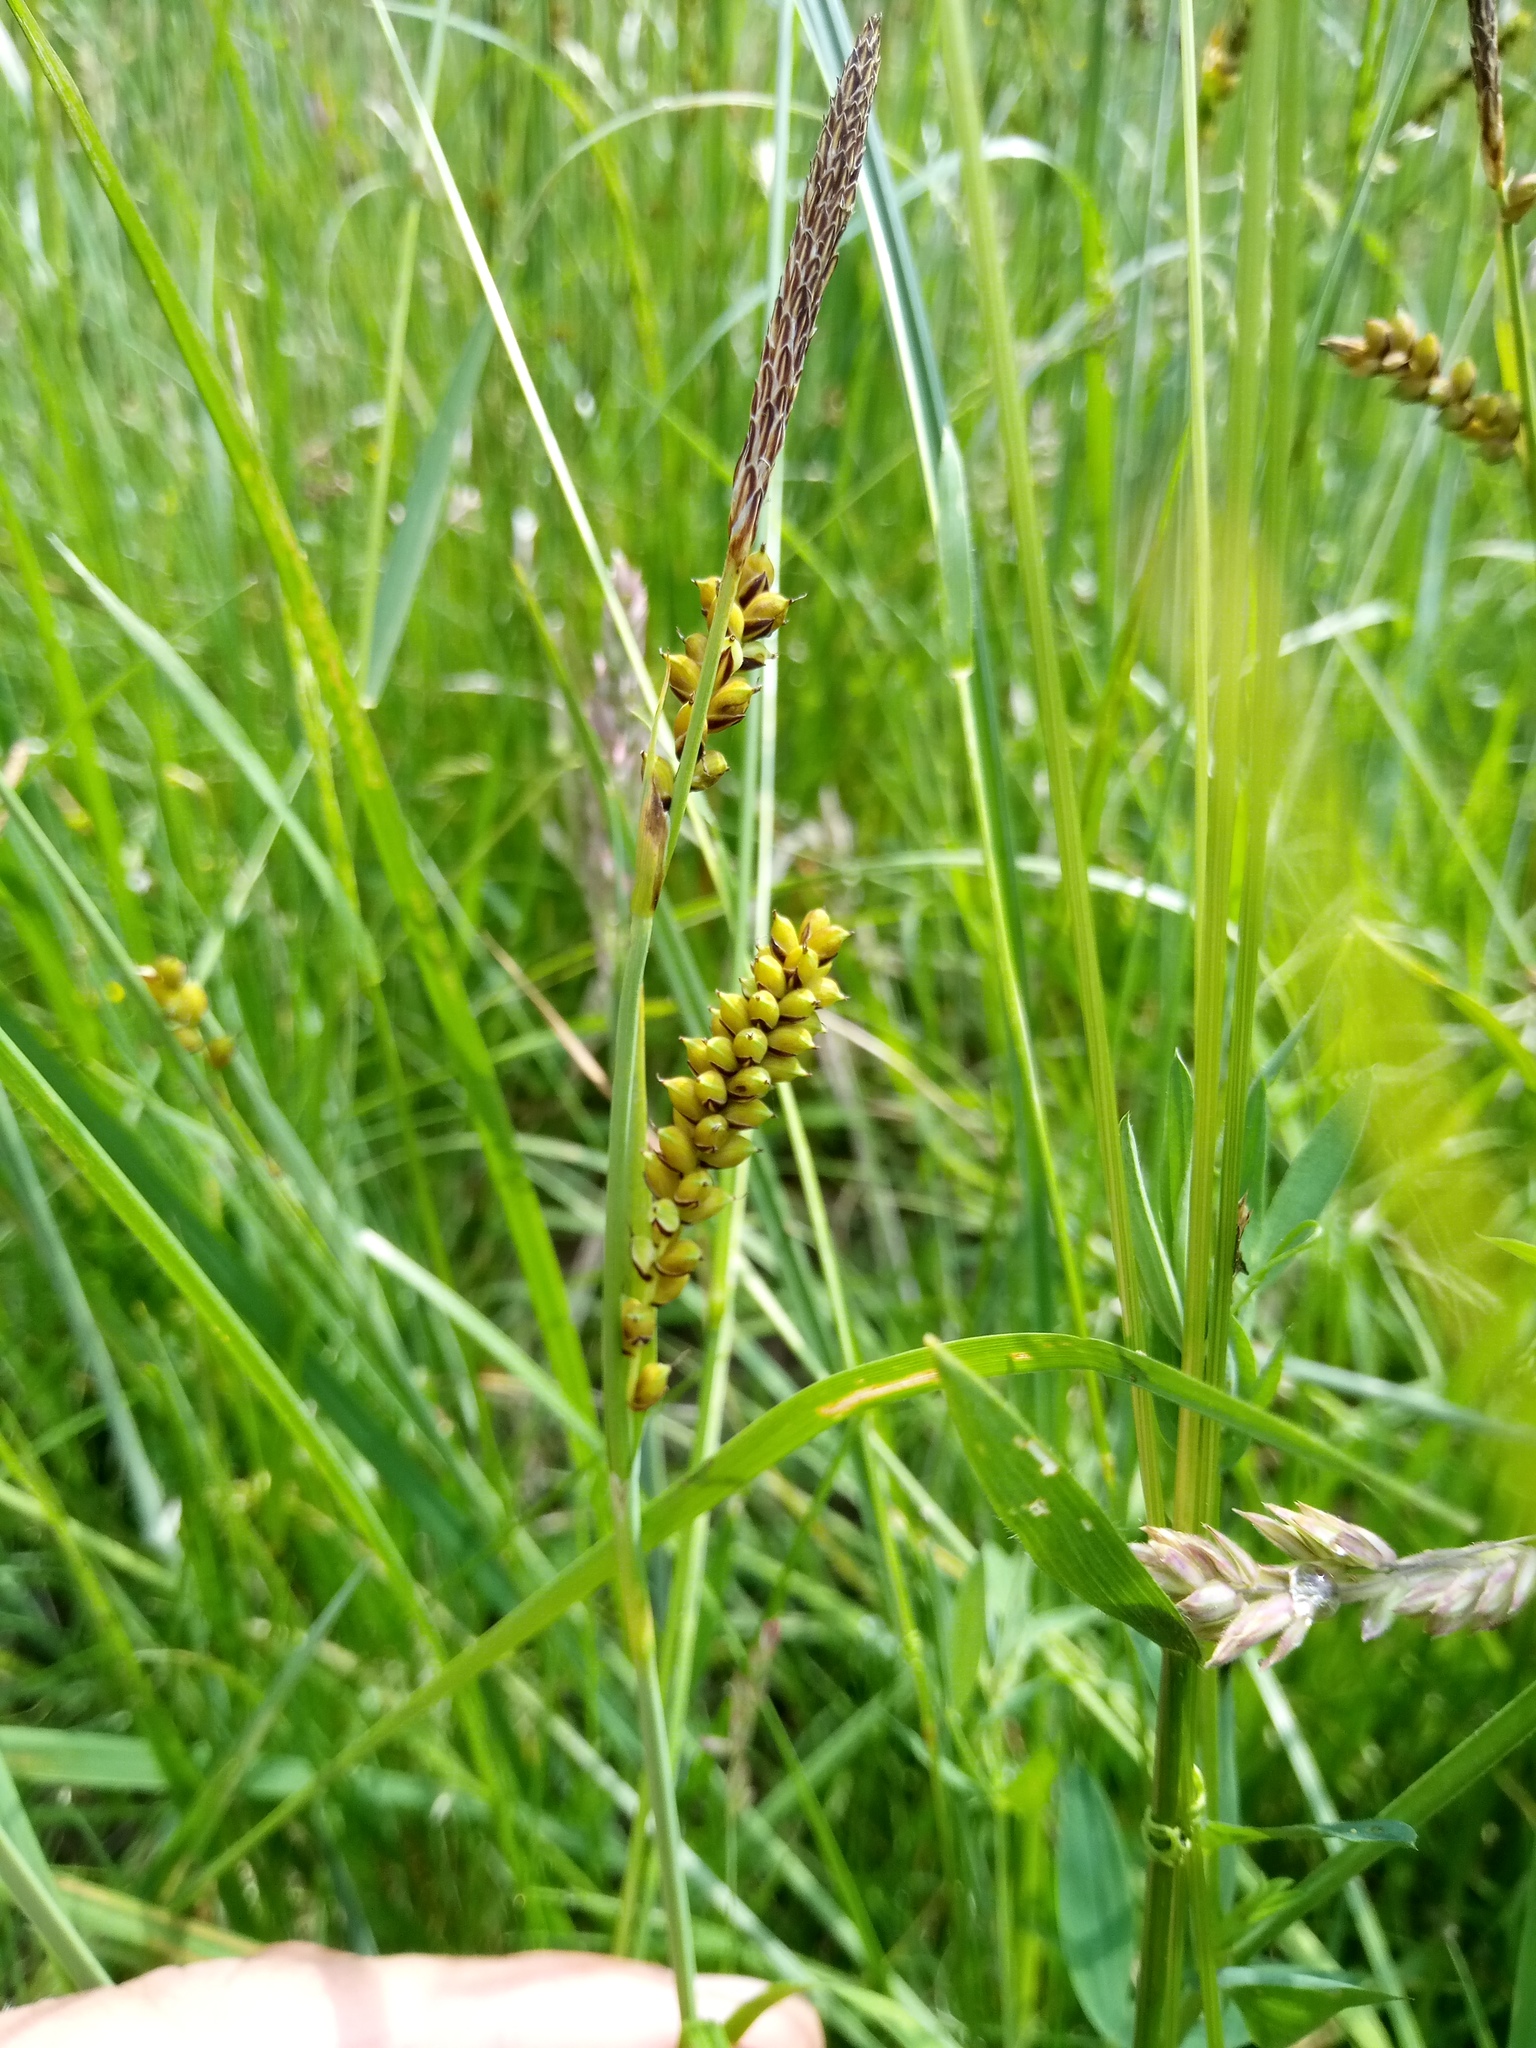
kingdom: Plantae
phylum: Tracheophyta
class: Liliopsida
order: Poales
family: Cyperaceae
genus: Carex
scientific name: Carex panicea
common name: Carnation sedge
